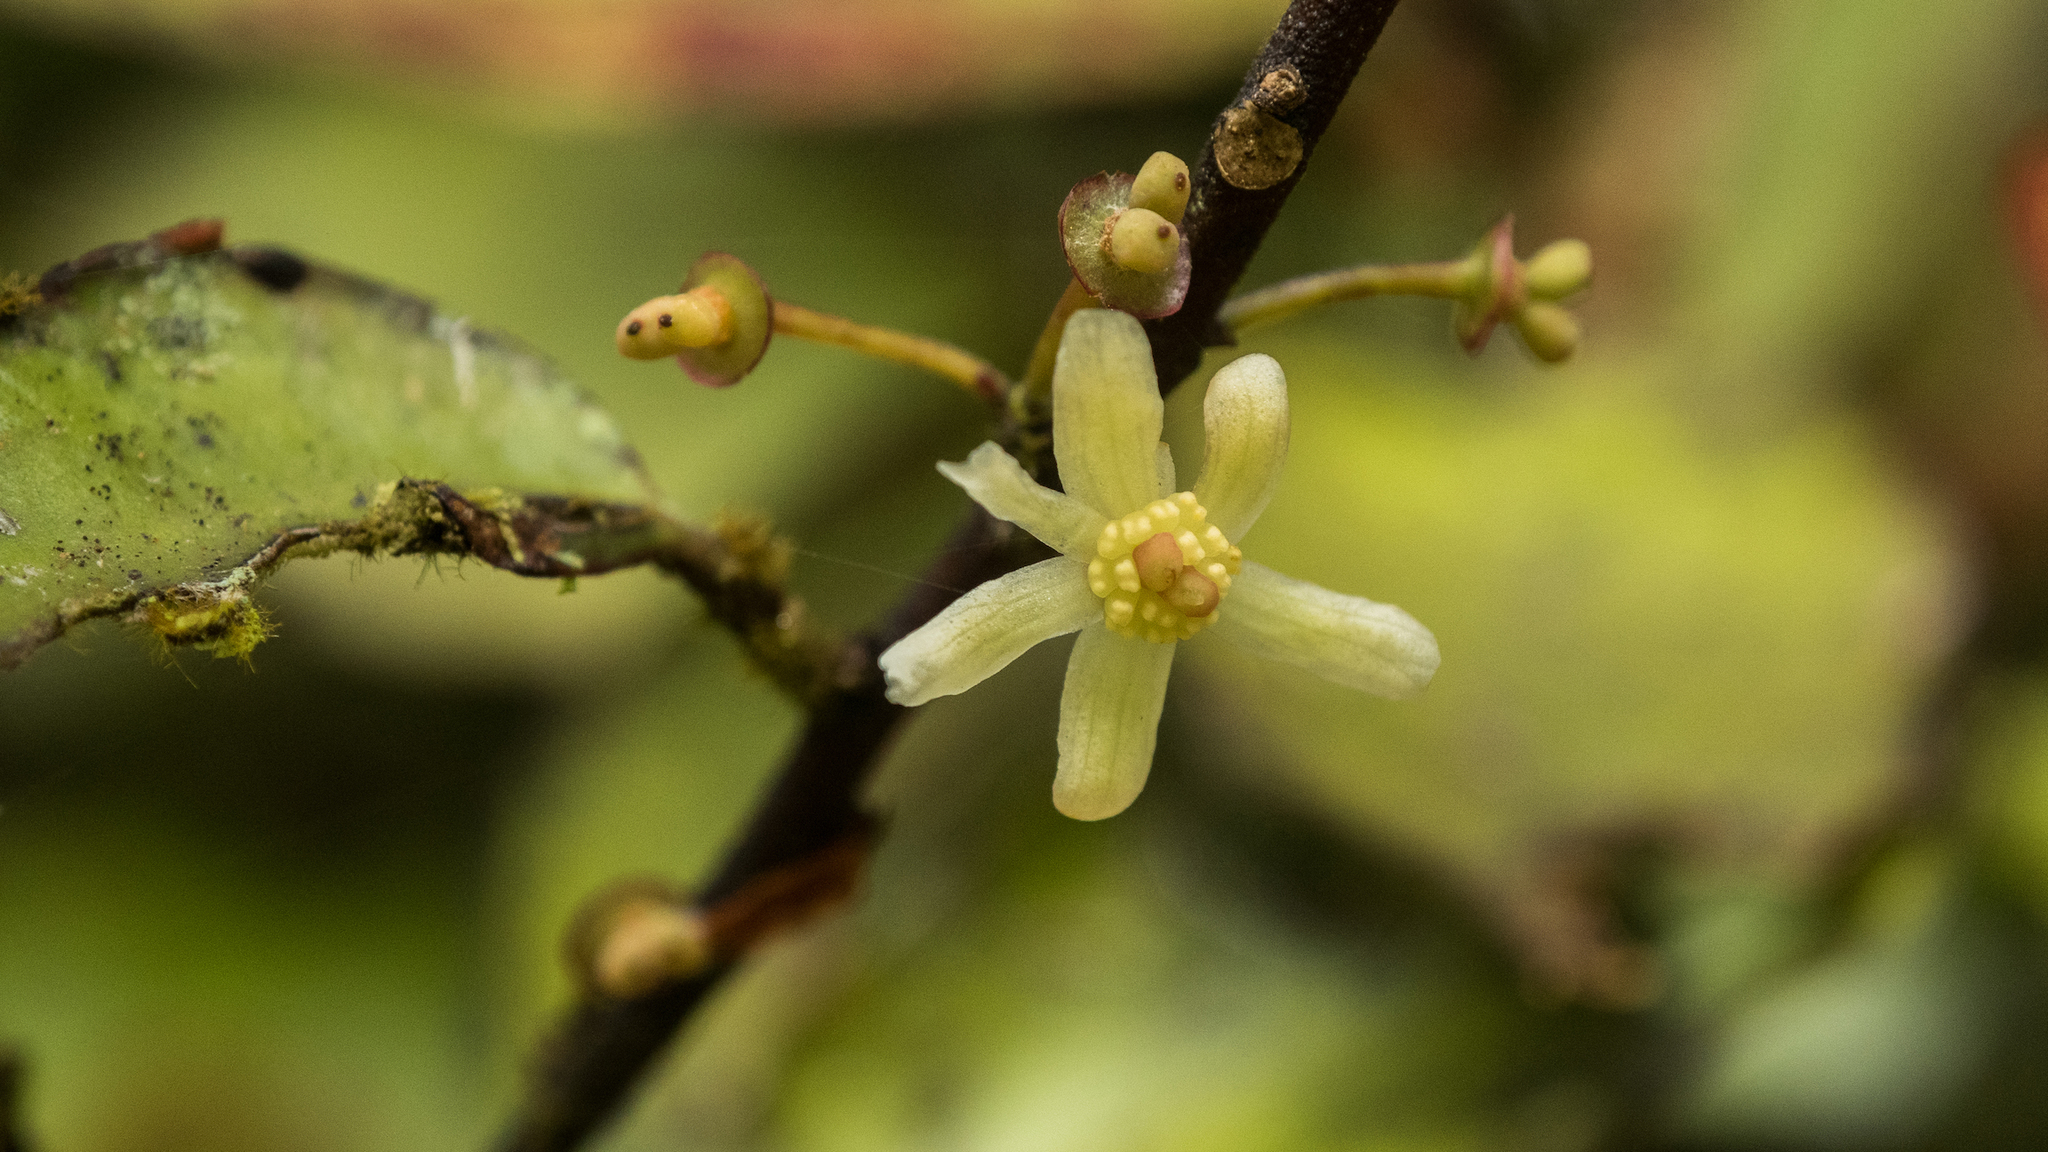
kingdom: Plantae
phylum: Tracheophyta
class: Magnoliopsida
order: Canellales
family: Winteraceae
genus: Pseudowintera
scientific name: Pseudowintera colorata
